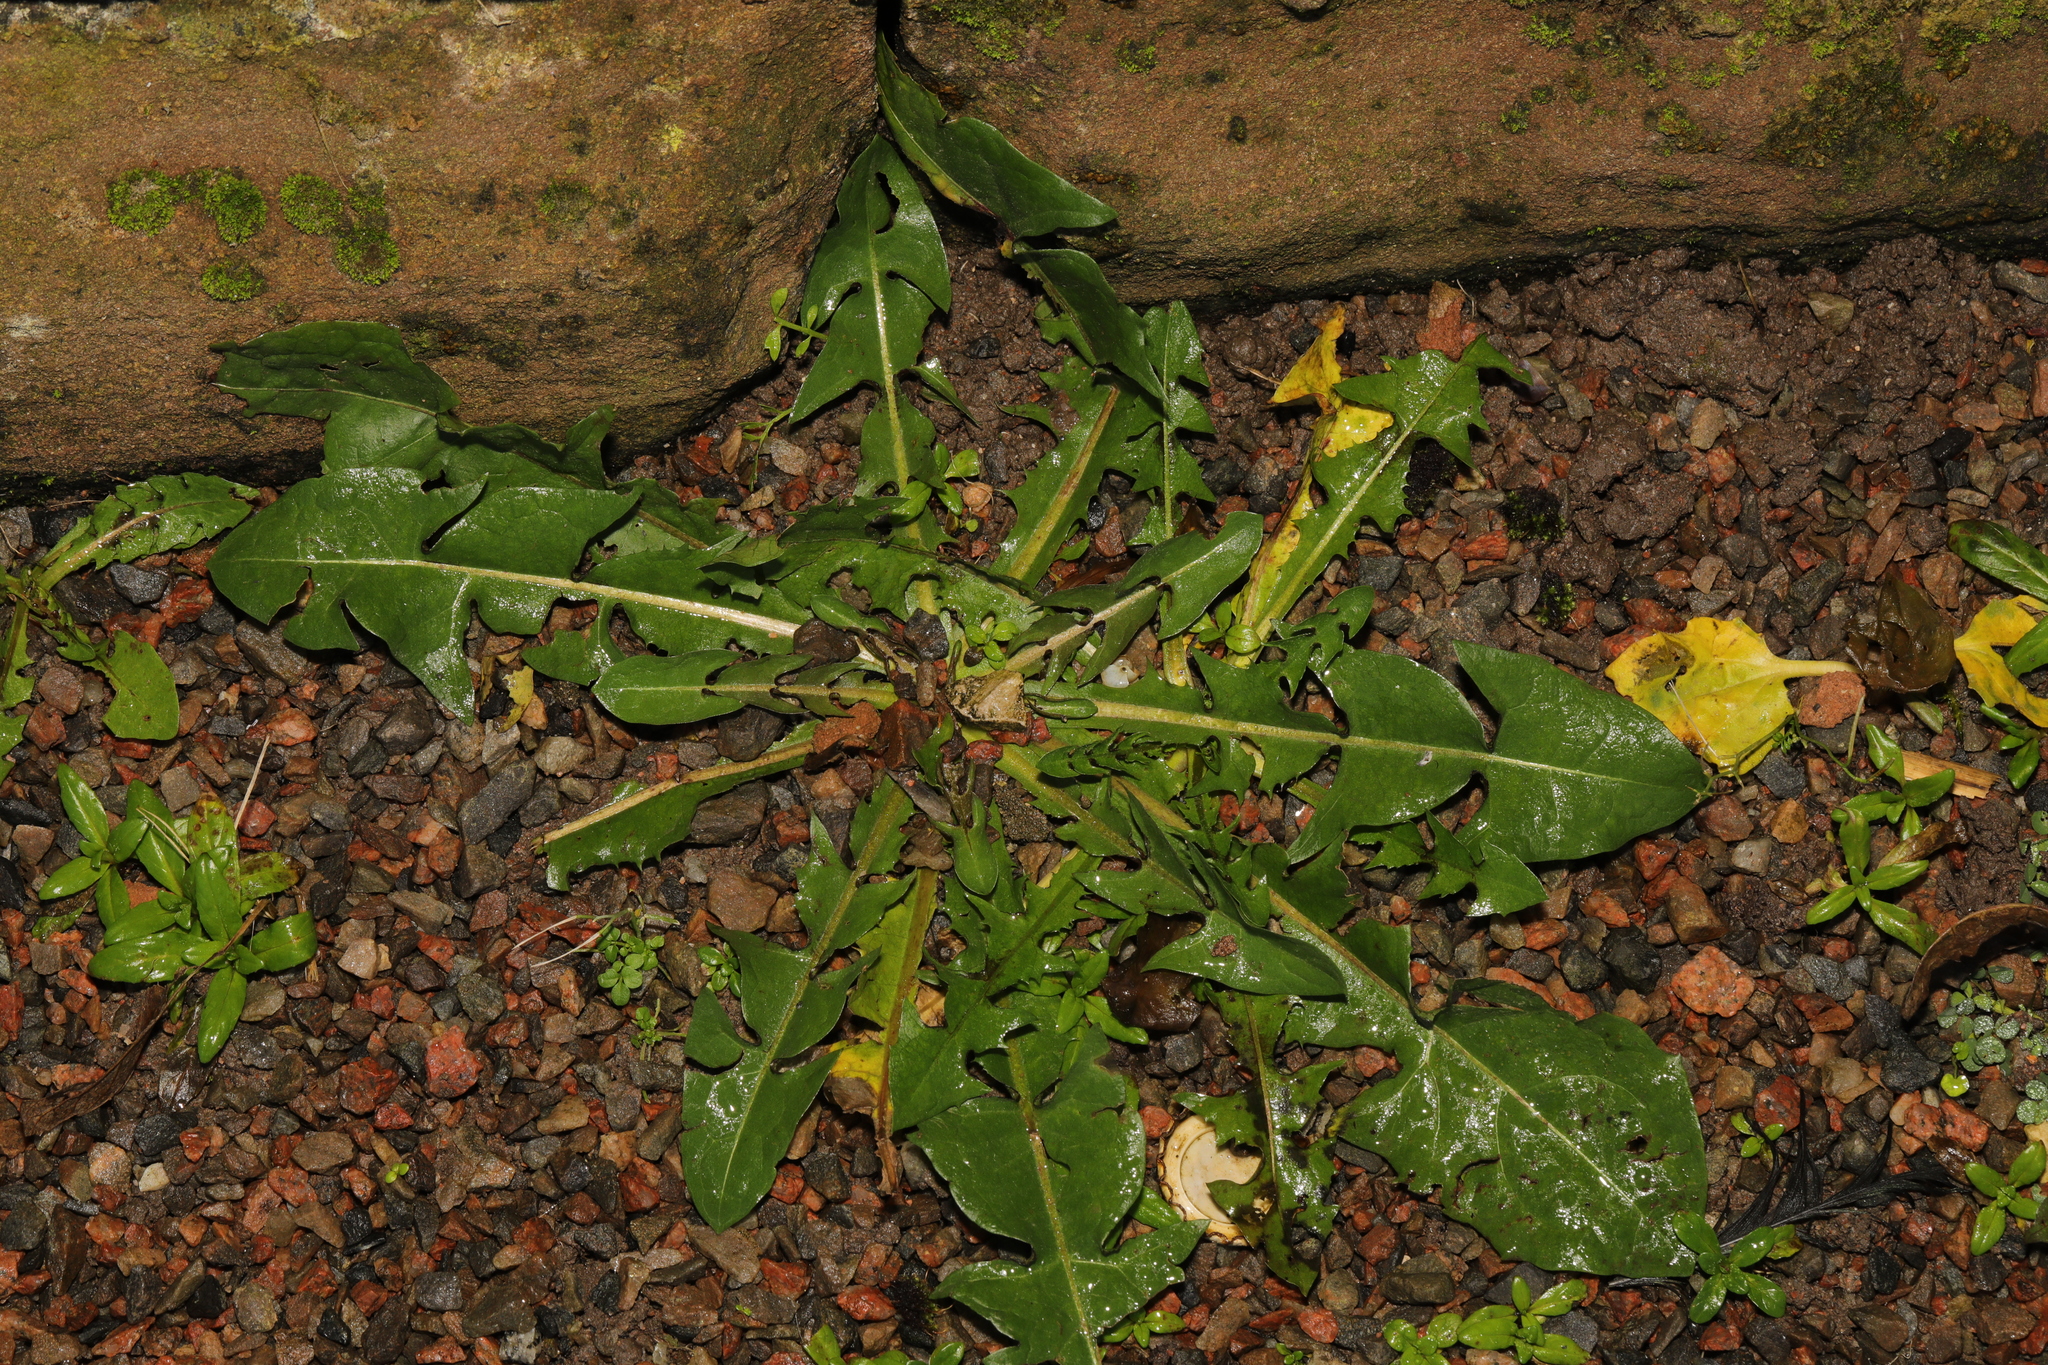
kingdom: Plantae
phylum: Tracheophyta
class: Magnoliopsida
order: Asterales
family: Asteraceae
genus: Taraxacum
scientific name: Taraxacum officinale
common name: Common dandelion
